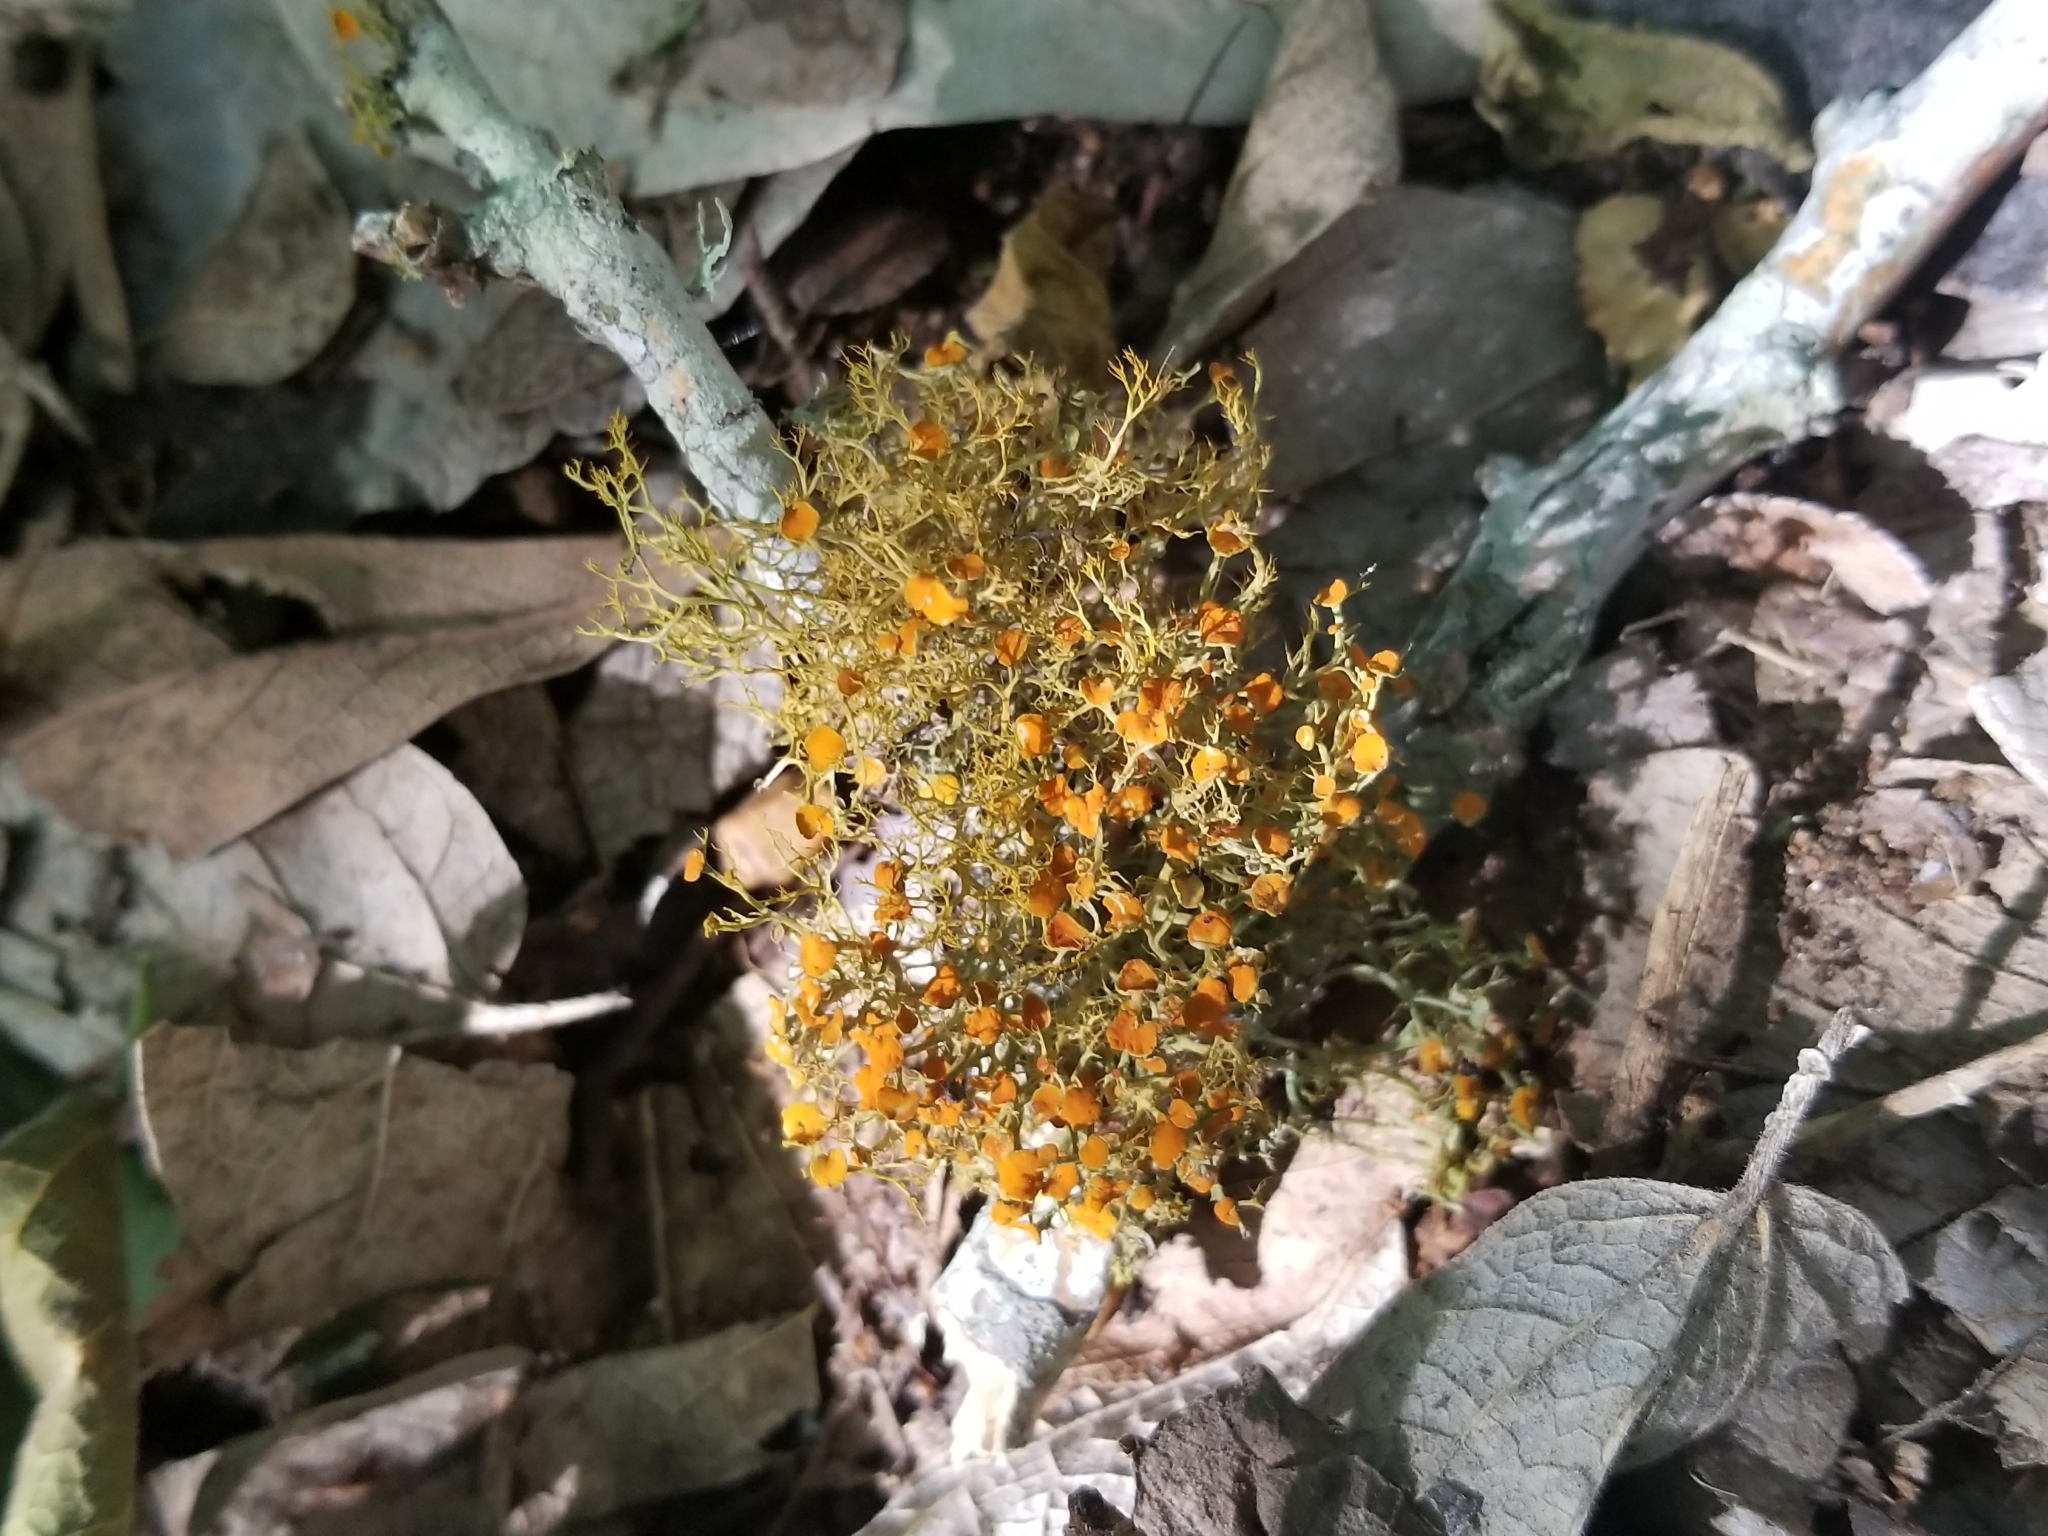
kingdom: Fungi
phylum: Ascomycota
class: Lecanoromycetes
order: Teloschistales
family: Teloschistaceae
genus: Teloschistes
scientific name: Teloschistes exilis
